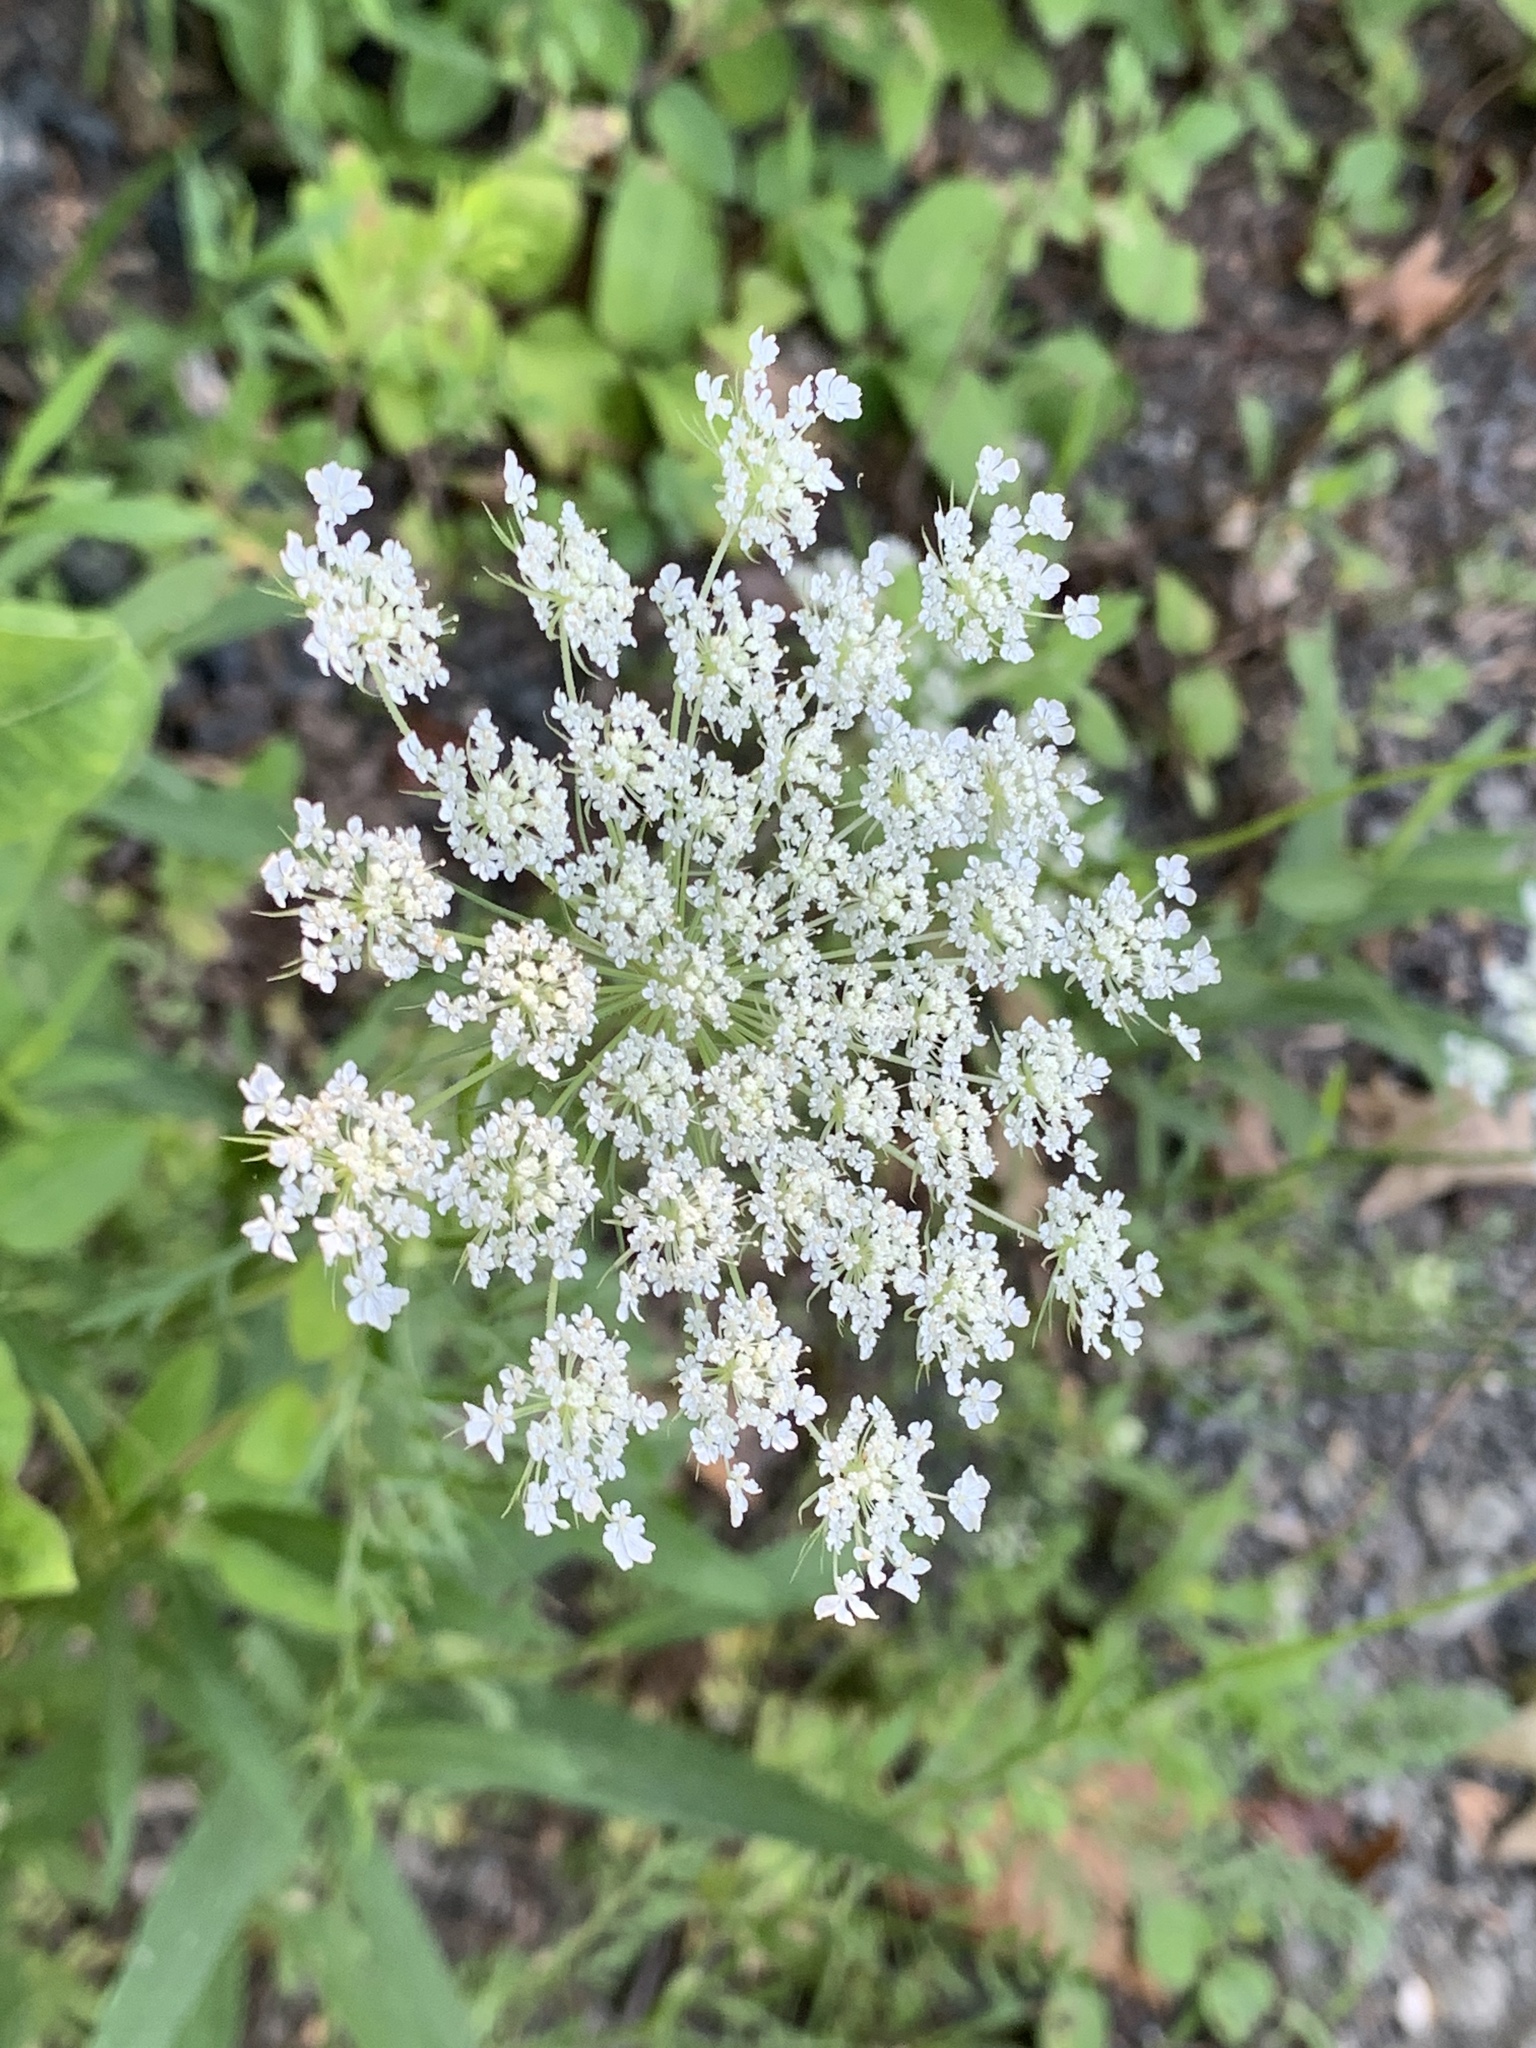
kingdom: Plantae
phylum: Tracheophyta
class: Magnoliopsida
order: Apiales
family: Apiaceae
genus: Daucus
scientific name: Daucus carota
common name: Wild carrot
